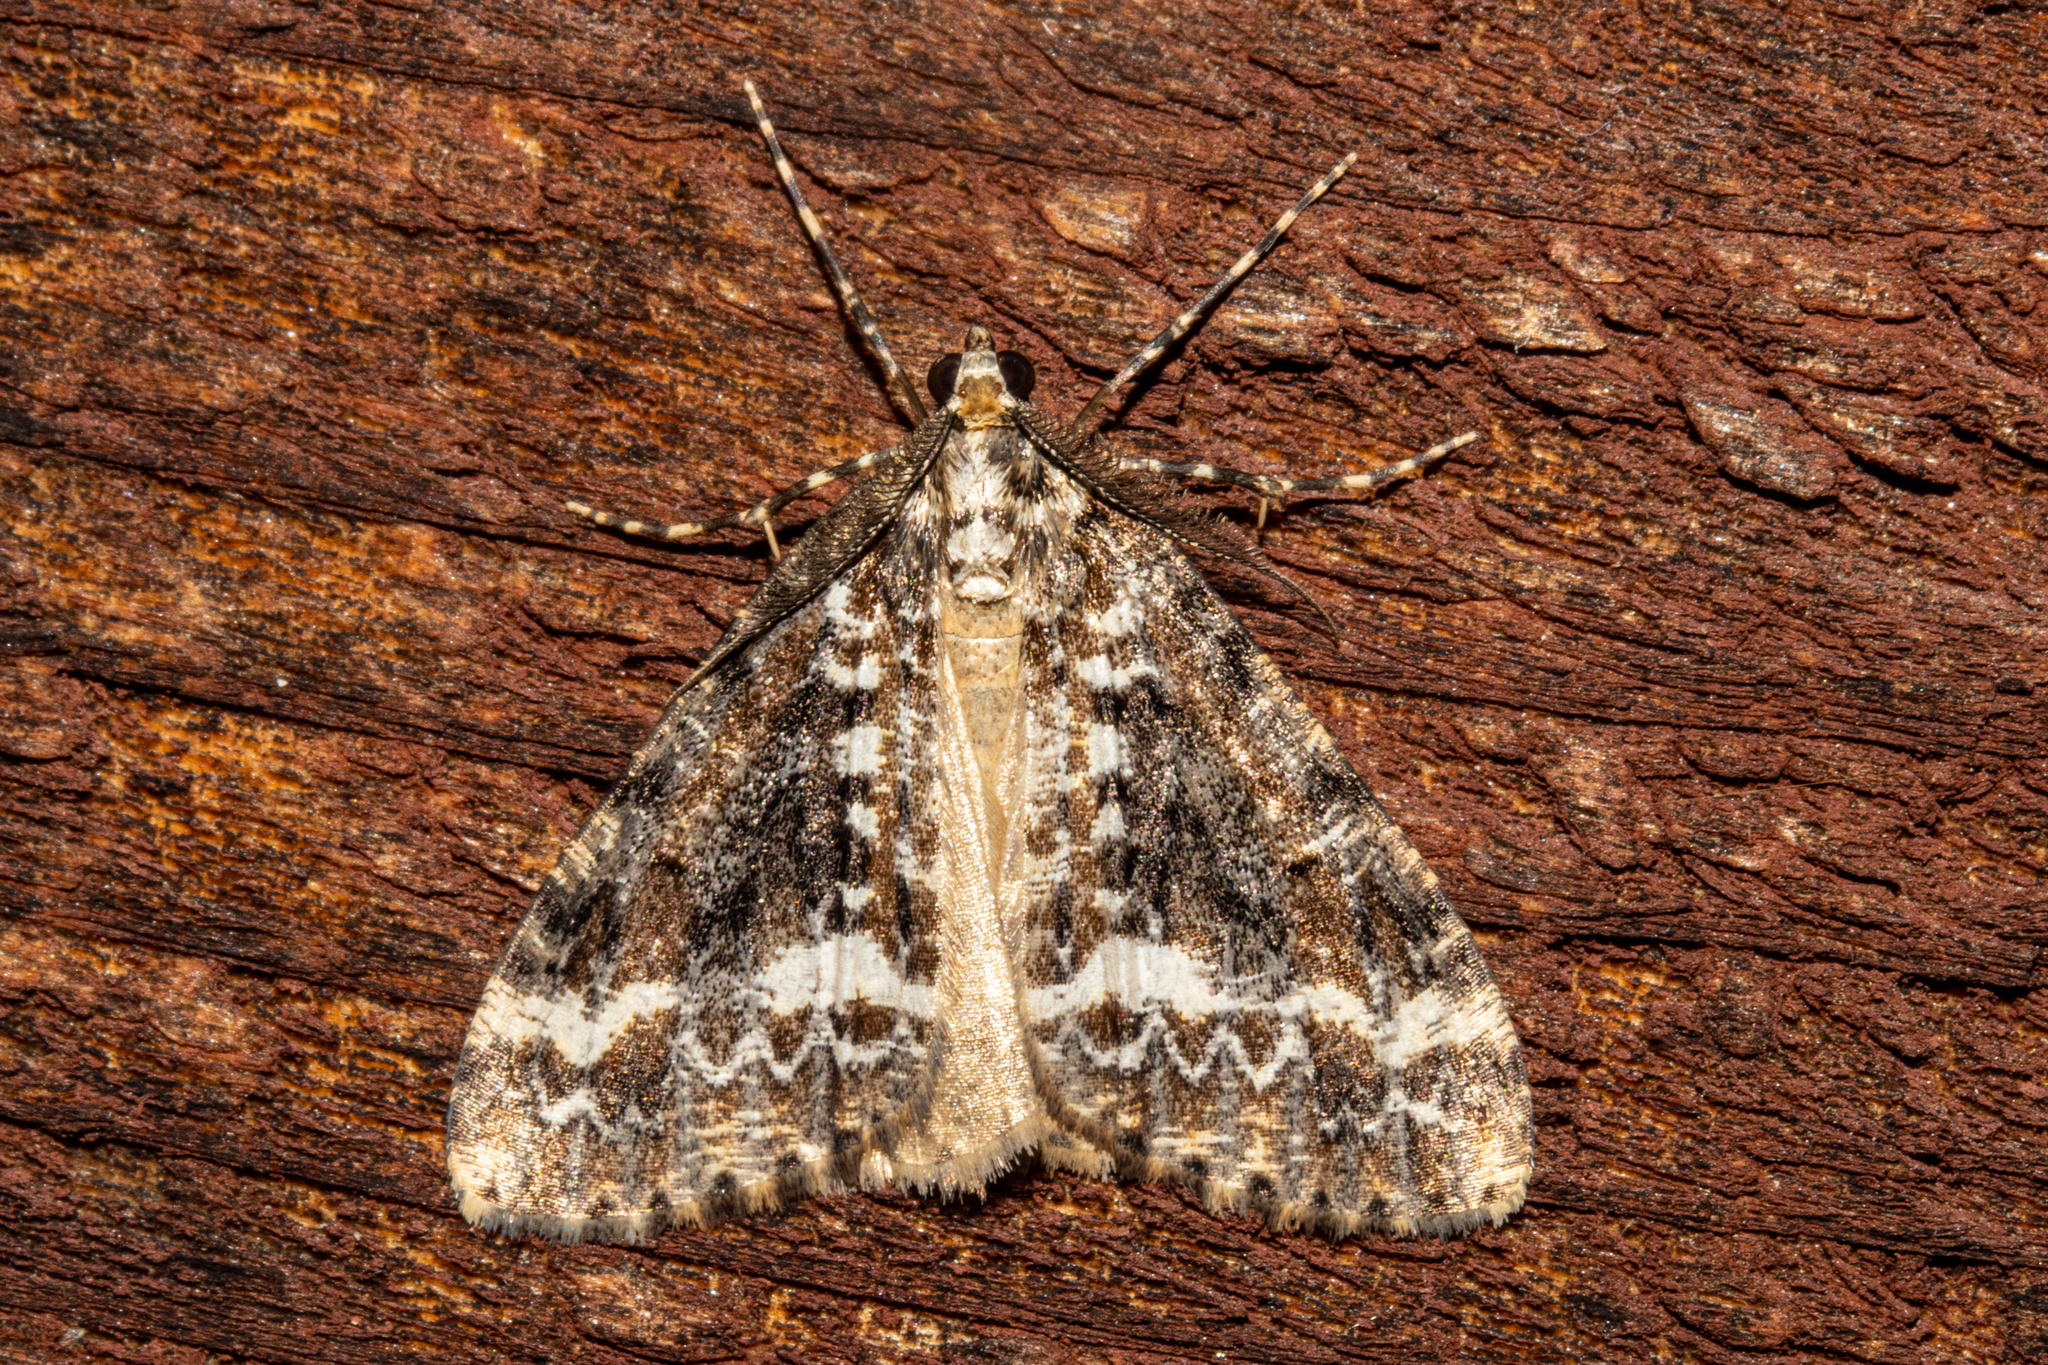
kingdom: Animalia
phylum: Arthropoda
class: Insecta
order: Lepidoptera
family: Geometridae
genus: Pseudocoremia
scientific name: Pseudocoremia leucelaea
